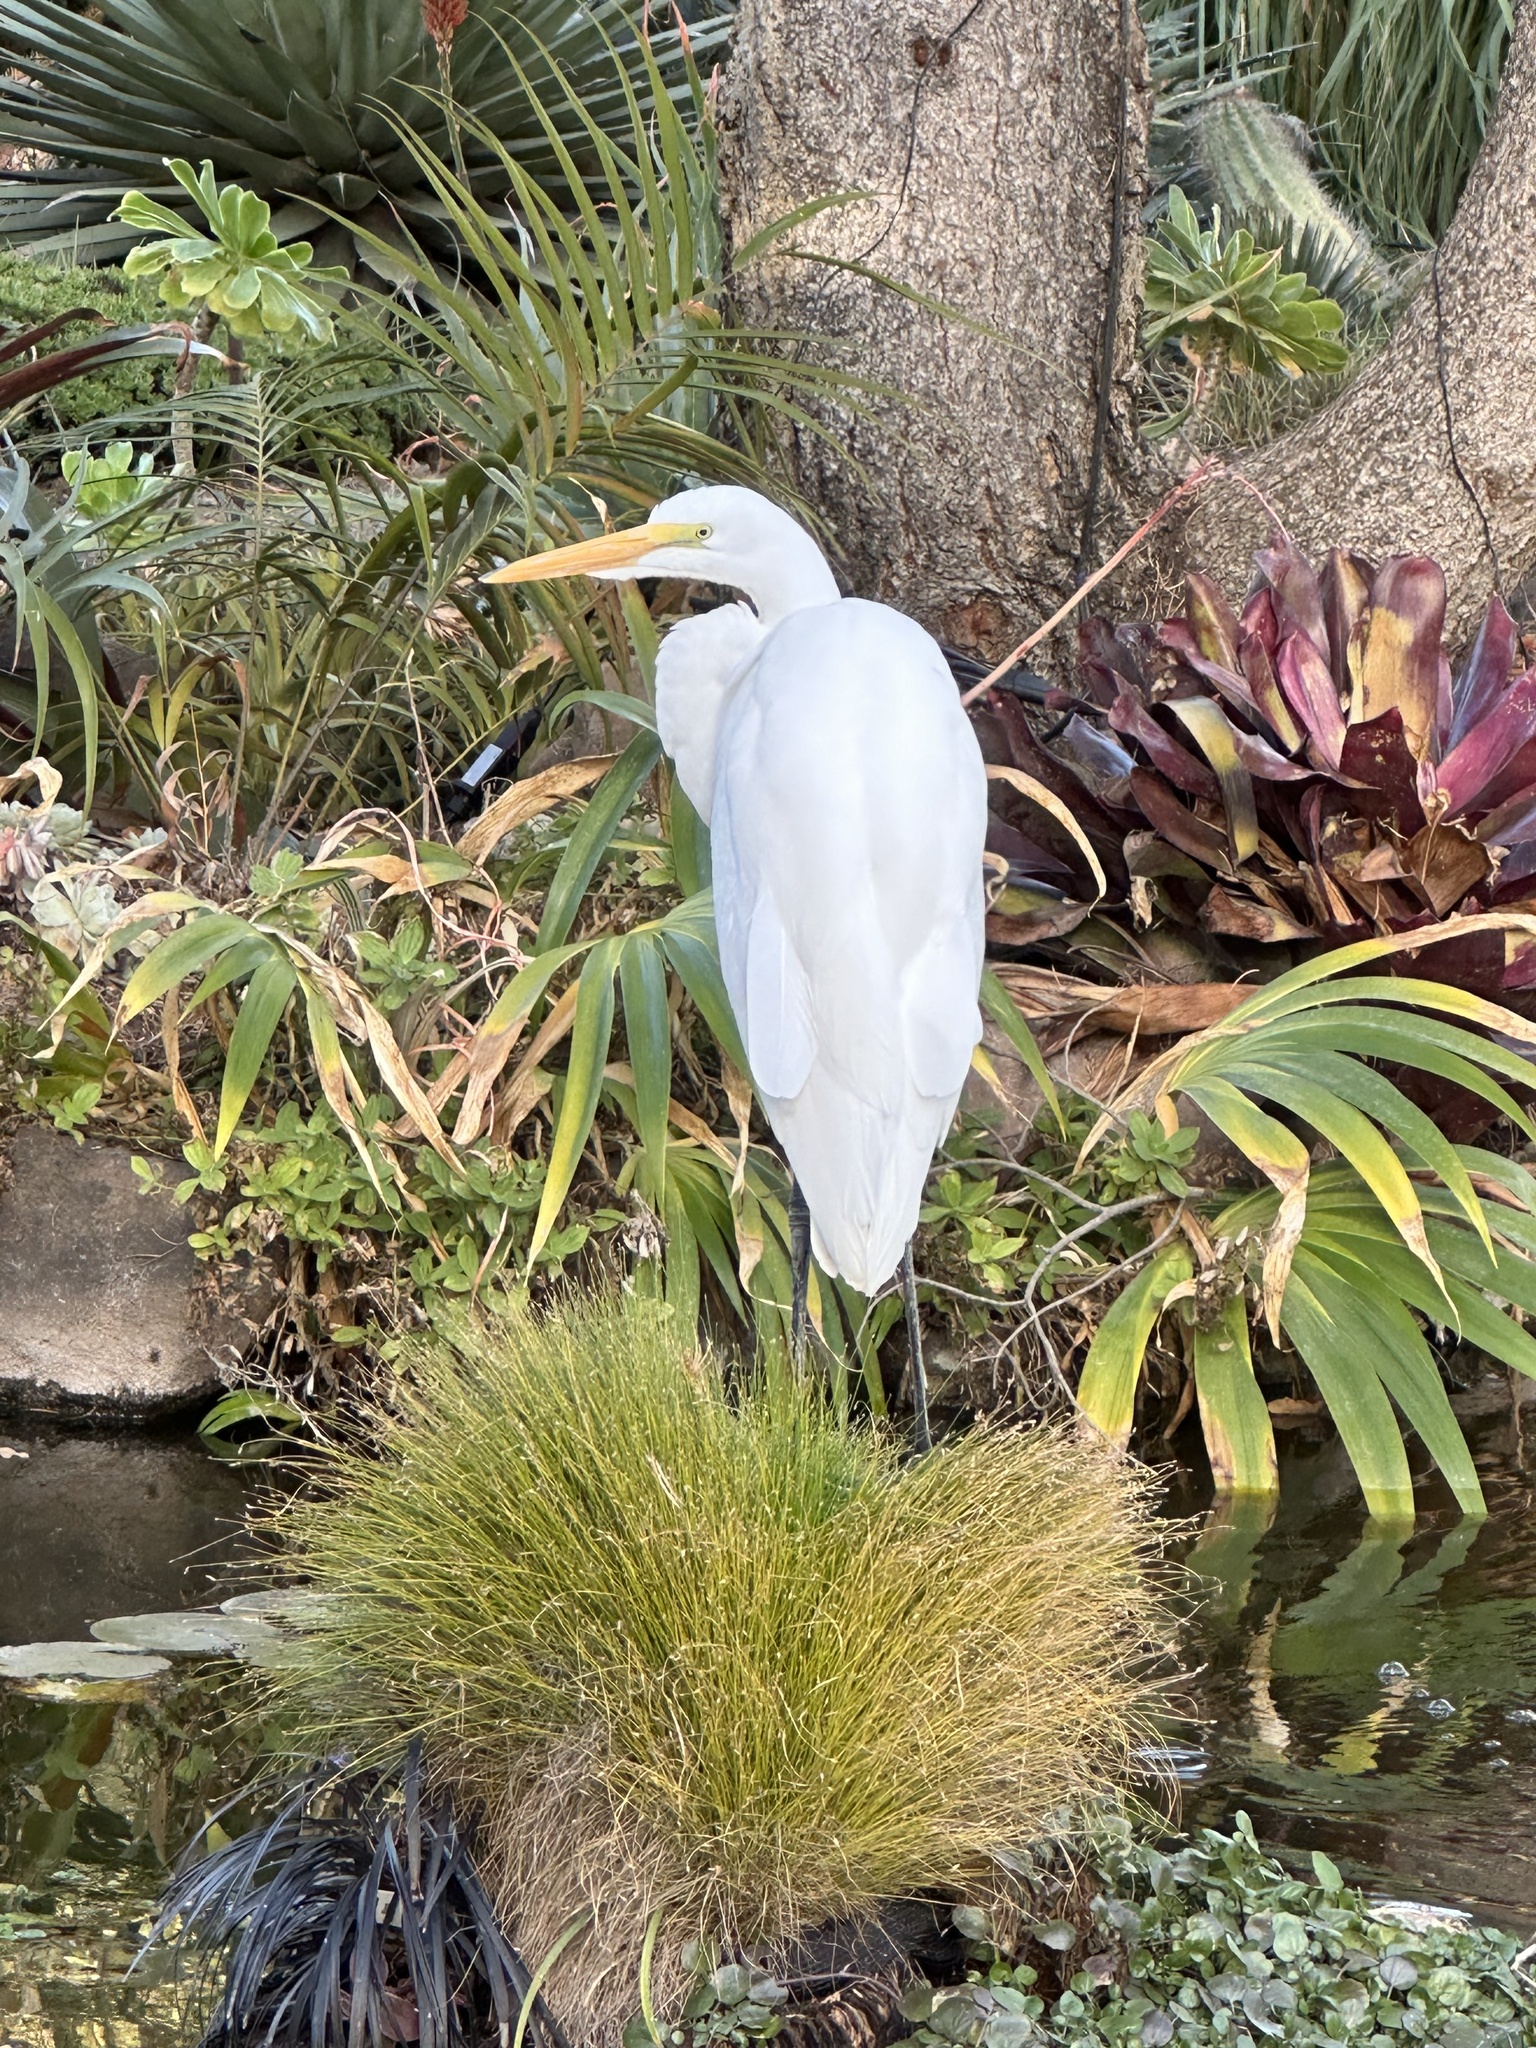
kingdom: Animalia
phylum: Chordata
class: Aves
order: Pelecaniformes
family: Ardeidae
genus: Ardea
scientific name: Ardea alba
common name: Great egret
